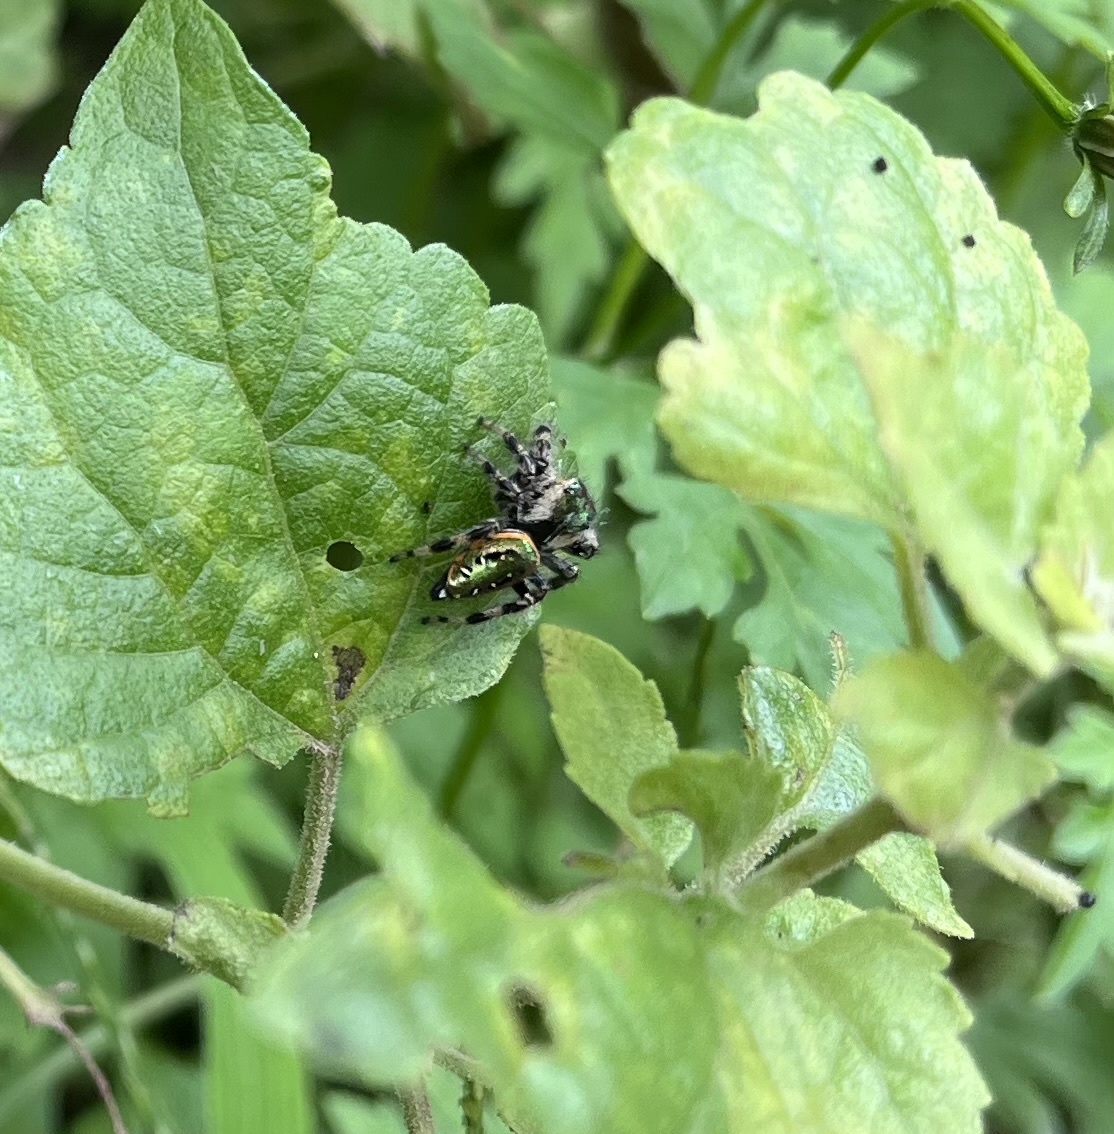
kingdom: Animalia
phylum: Arthropoda
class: Arachnida
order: Araneae
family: Salticidae
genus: Paraphidippus
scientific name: Paraphidippus aurantius
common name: Jumping spiders
